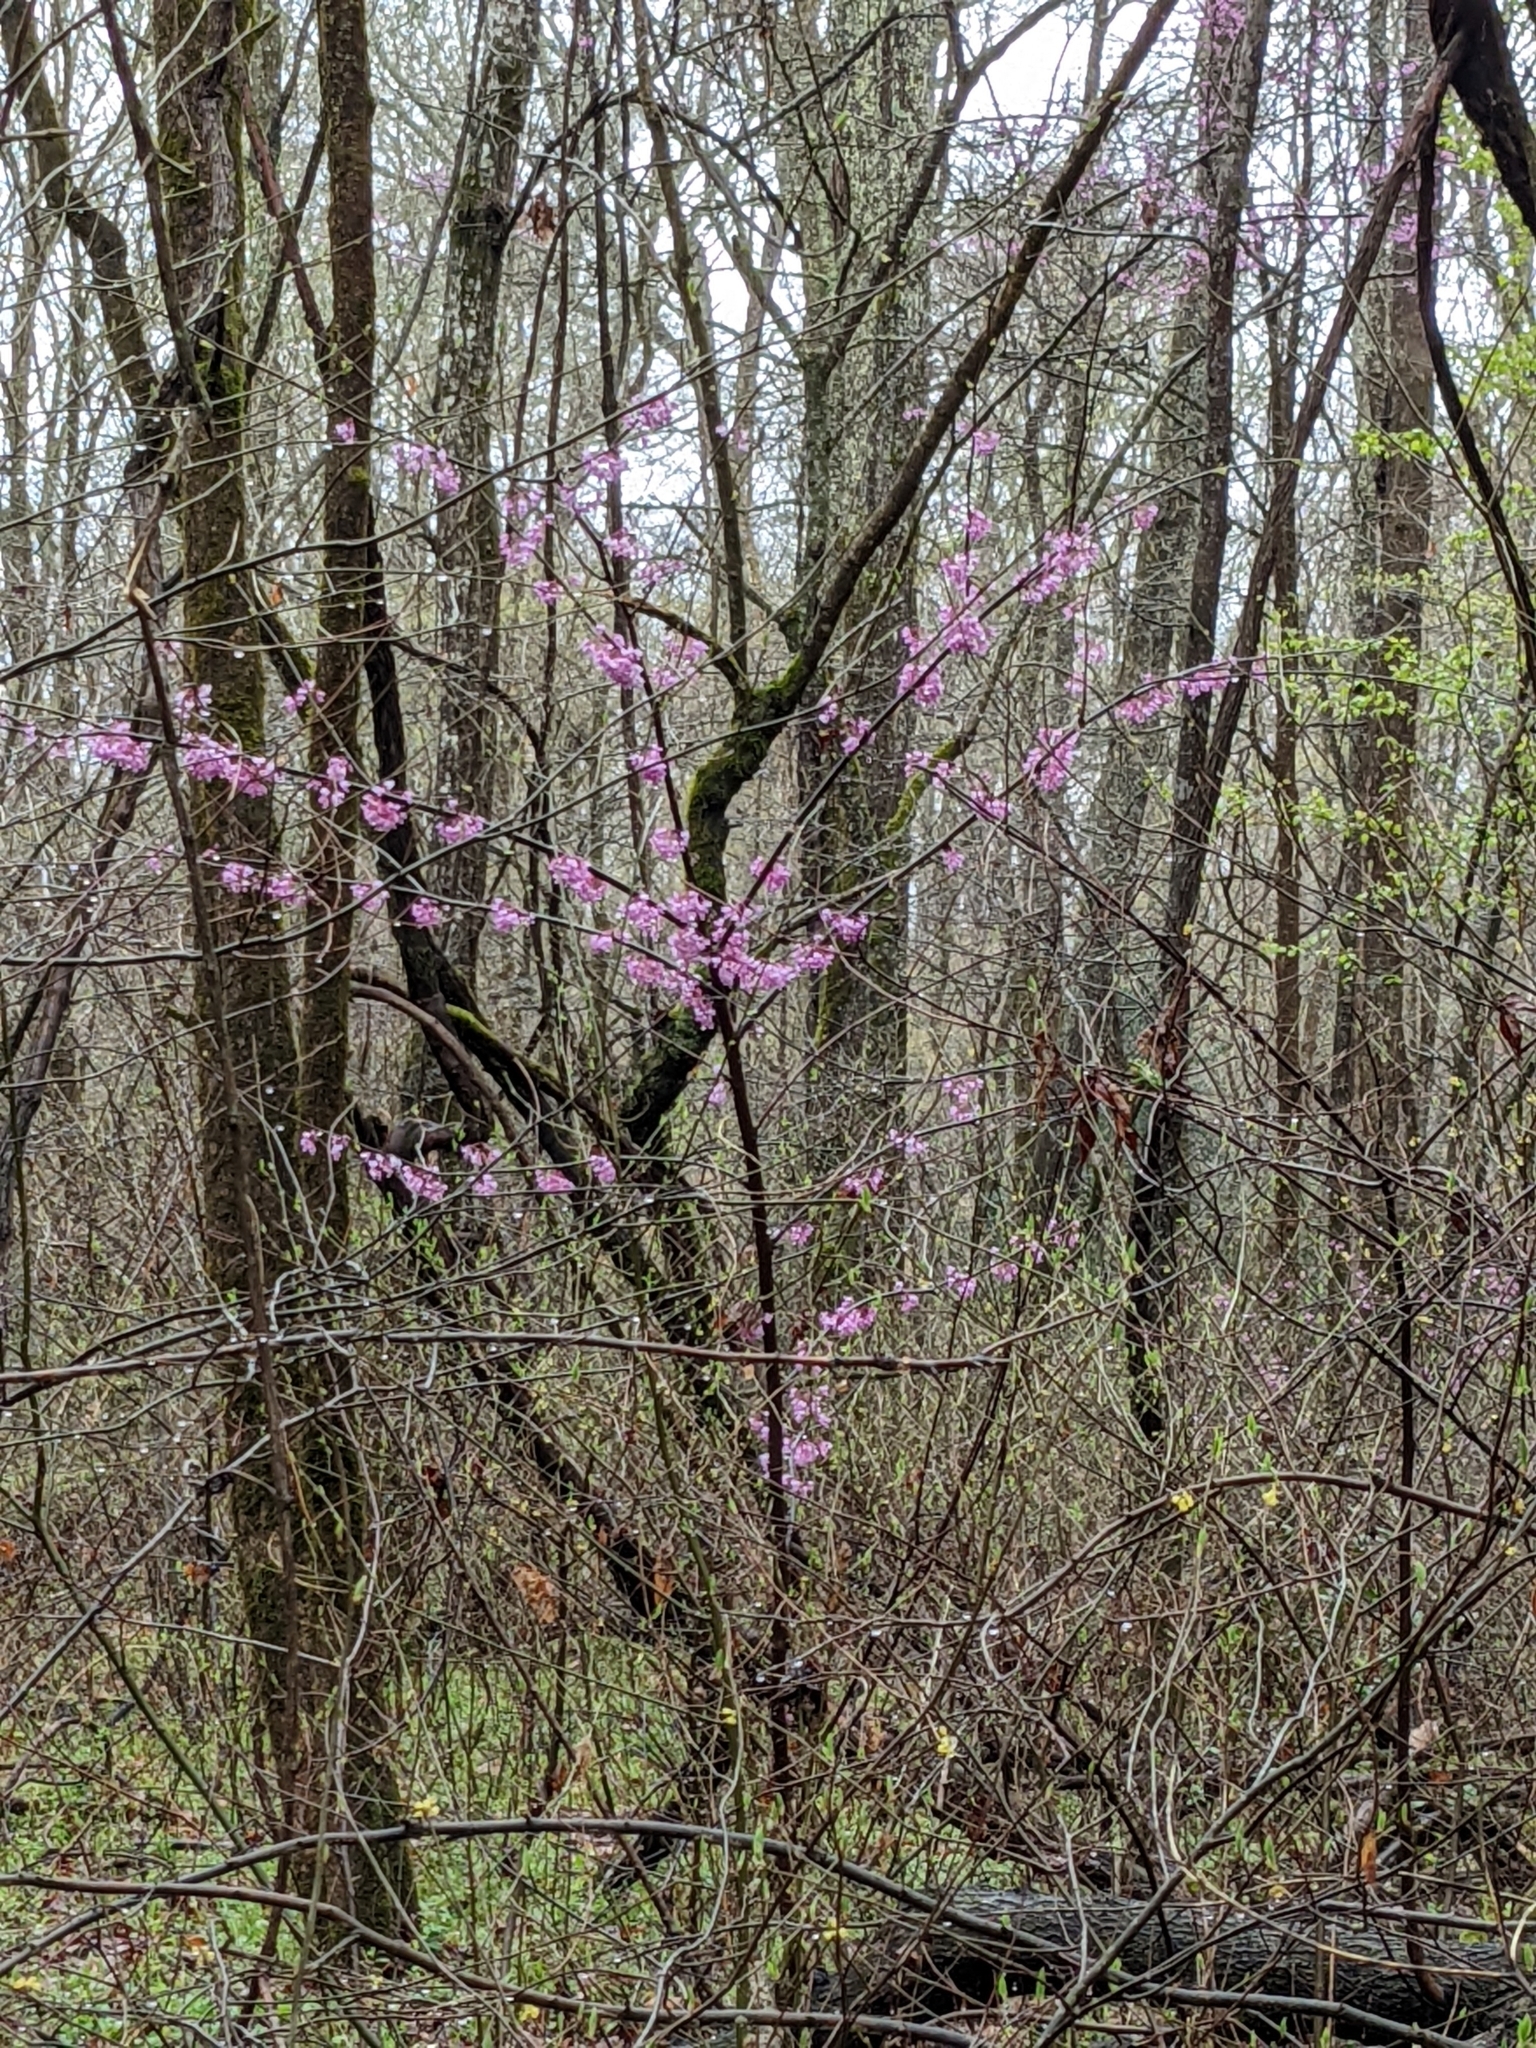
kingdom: Plantae
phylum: Tracheophyta
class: Magnoliopsida
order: Fabales
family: Fabaceae
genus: Cercis
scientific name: Cercis canadensis
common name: Eastern redbud
